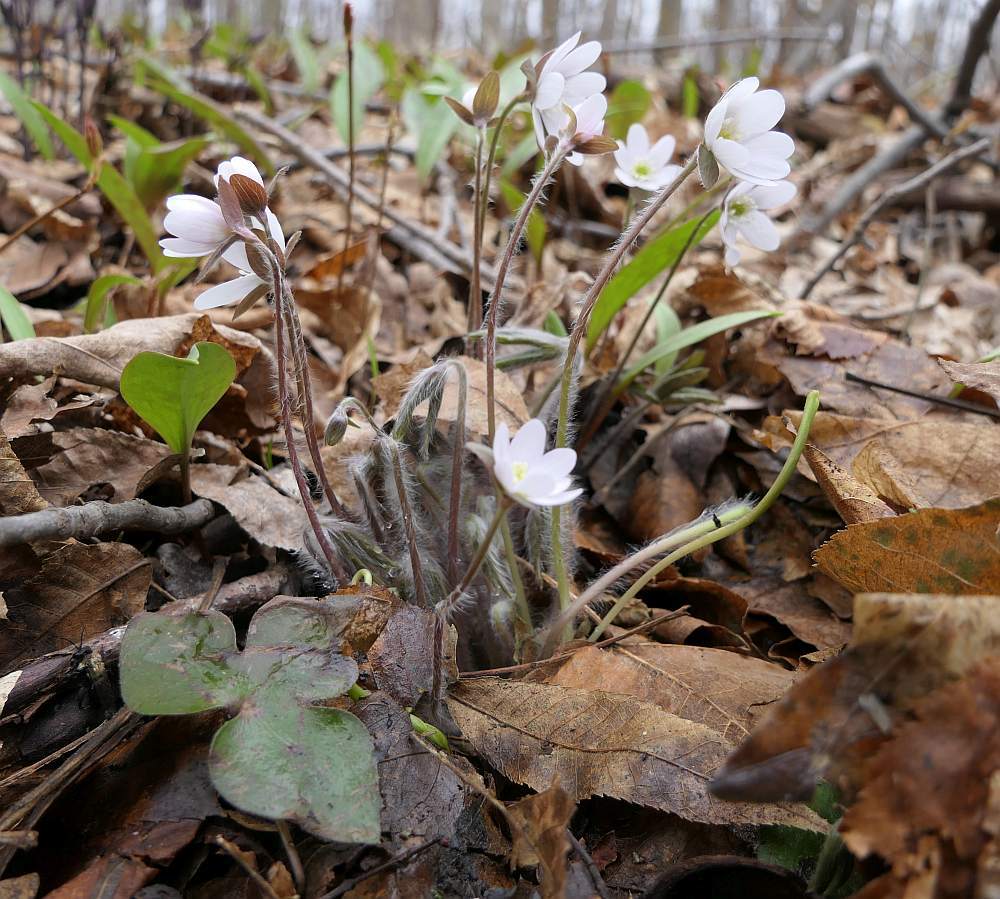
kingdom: Plantae
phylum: Tracheophyta
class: Magnoliopsida
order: Ranunculales
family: Ranunculaceae
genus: Hepatica
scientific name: Hepatica acutiloba
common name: Sharp-lobed hepatica
